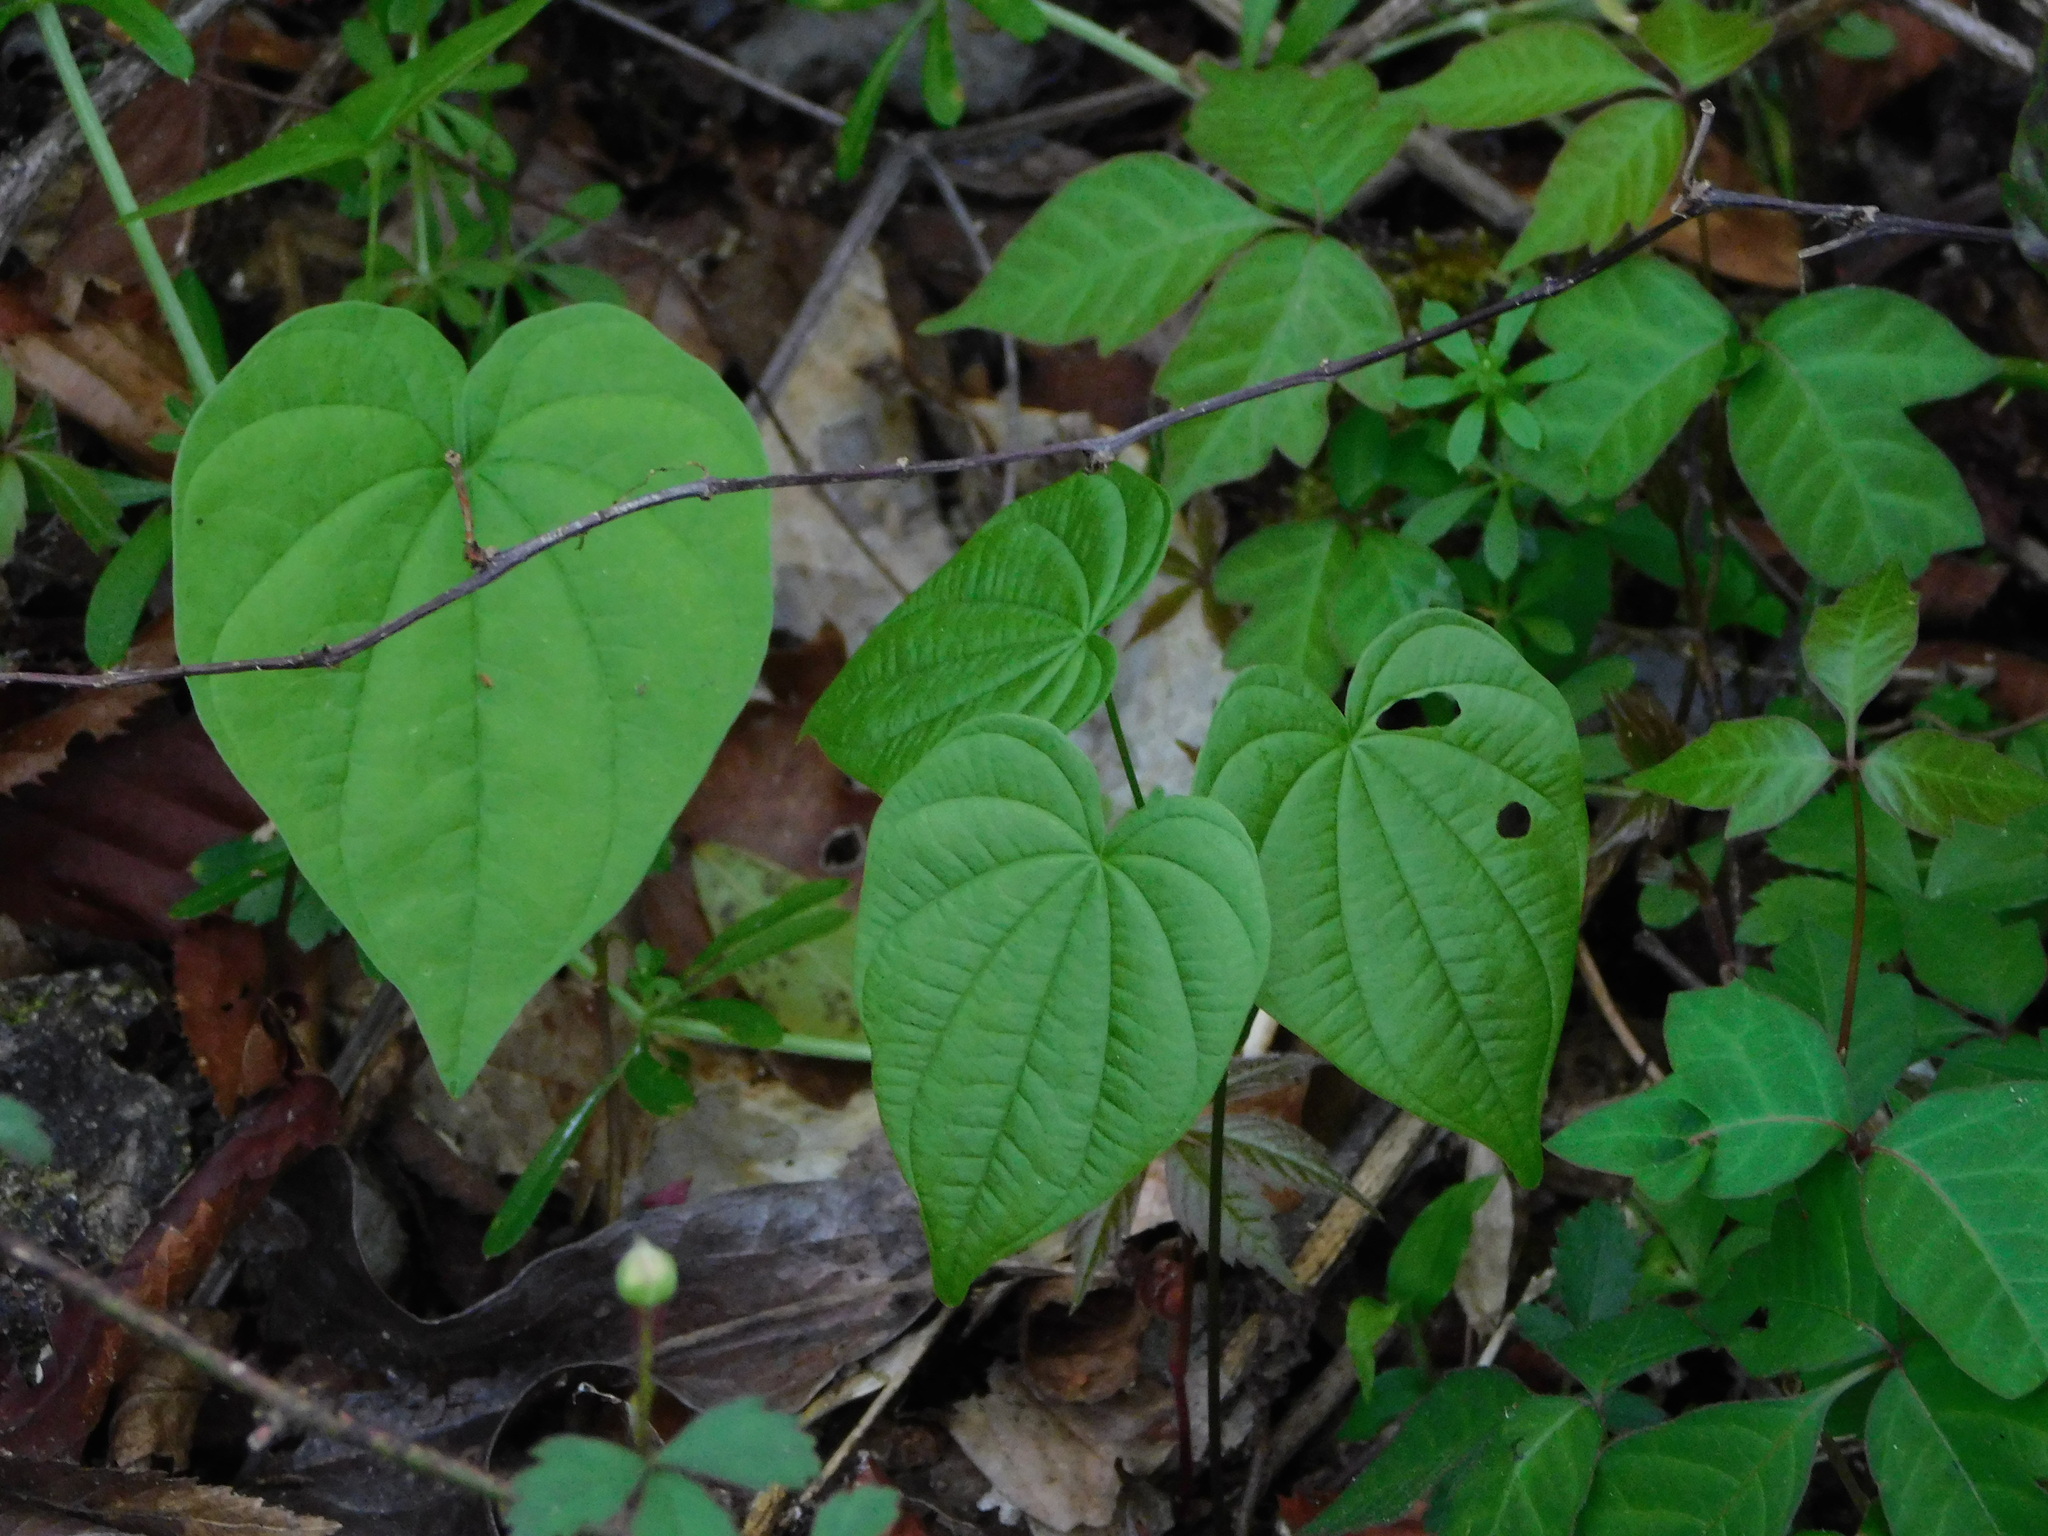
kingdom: Plantae
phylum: Tracheophyta
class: Liliopsida
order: Dioscoreales
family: Dioscoreaceae
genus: Dioscorea
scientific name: Dioscorea villosa
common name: Wild yam
